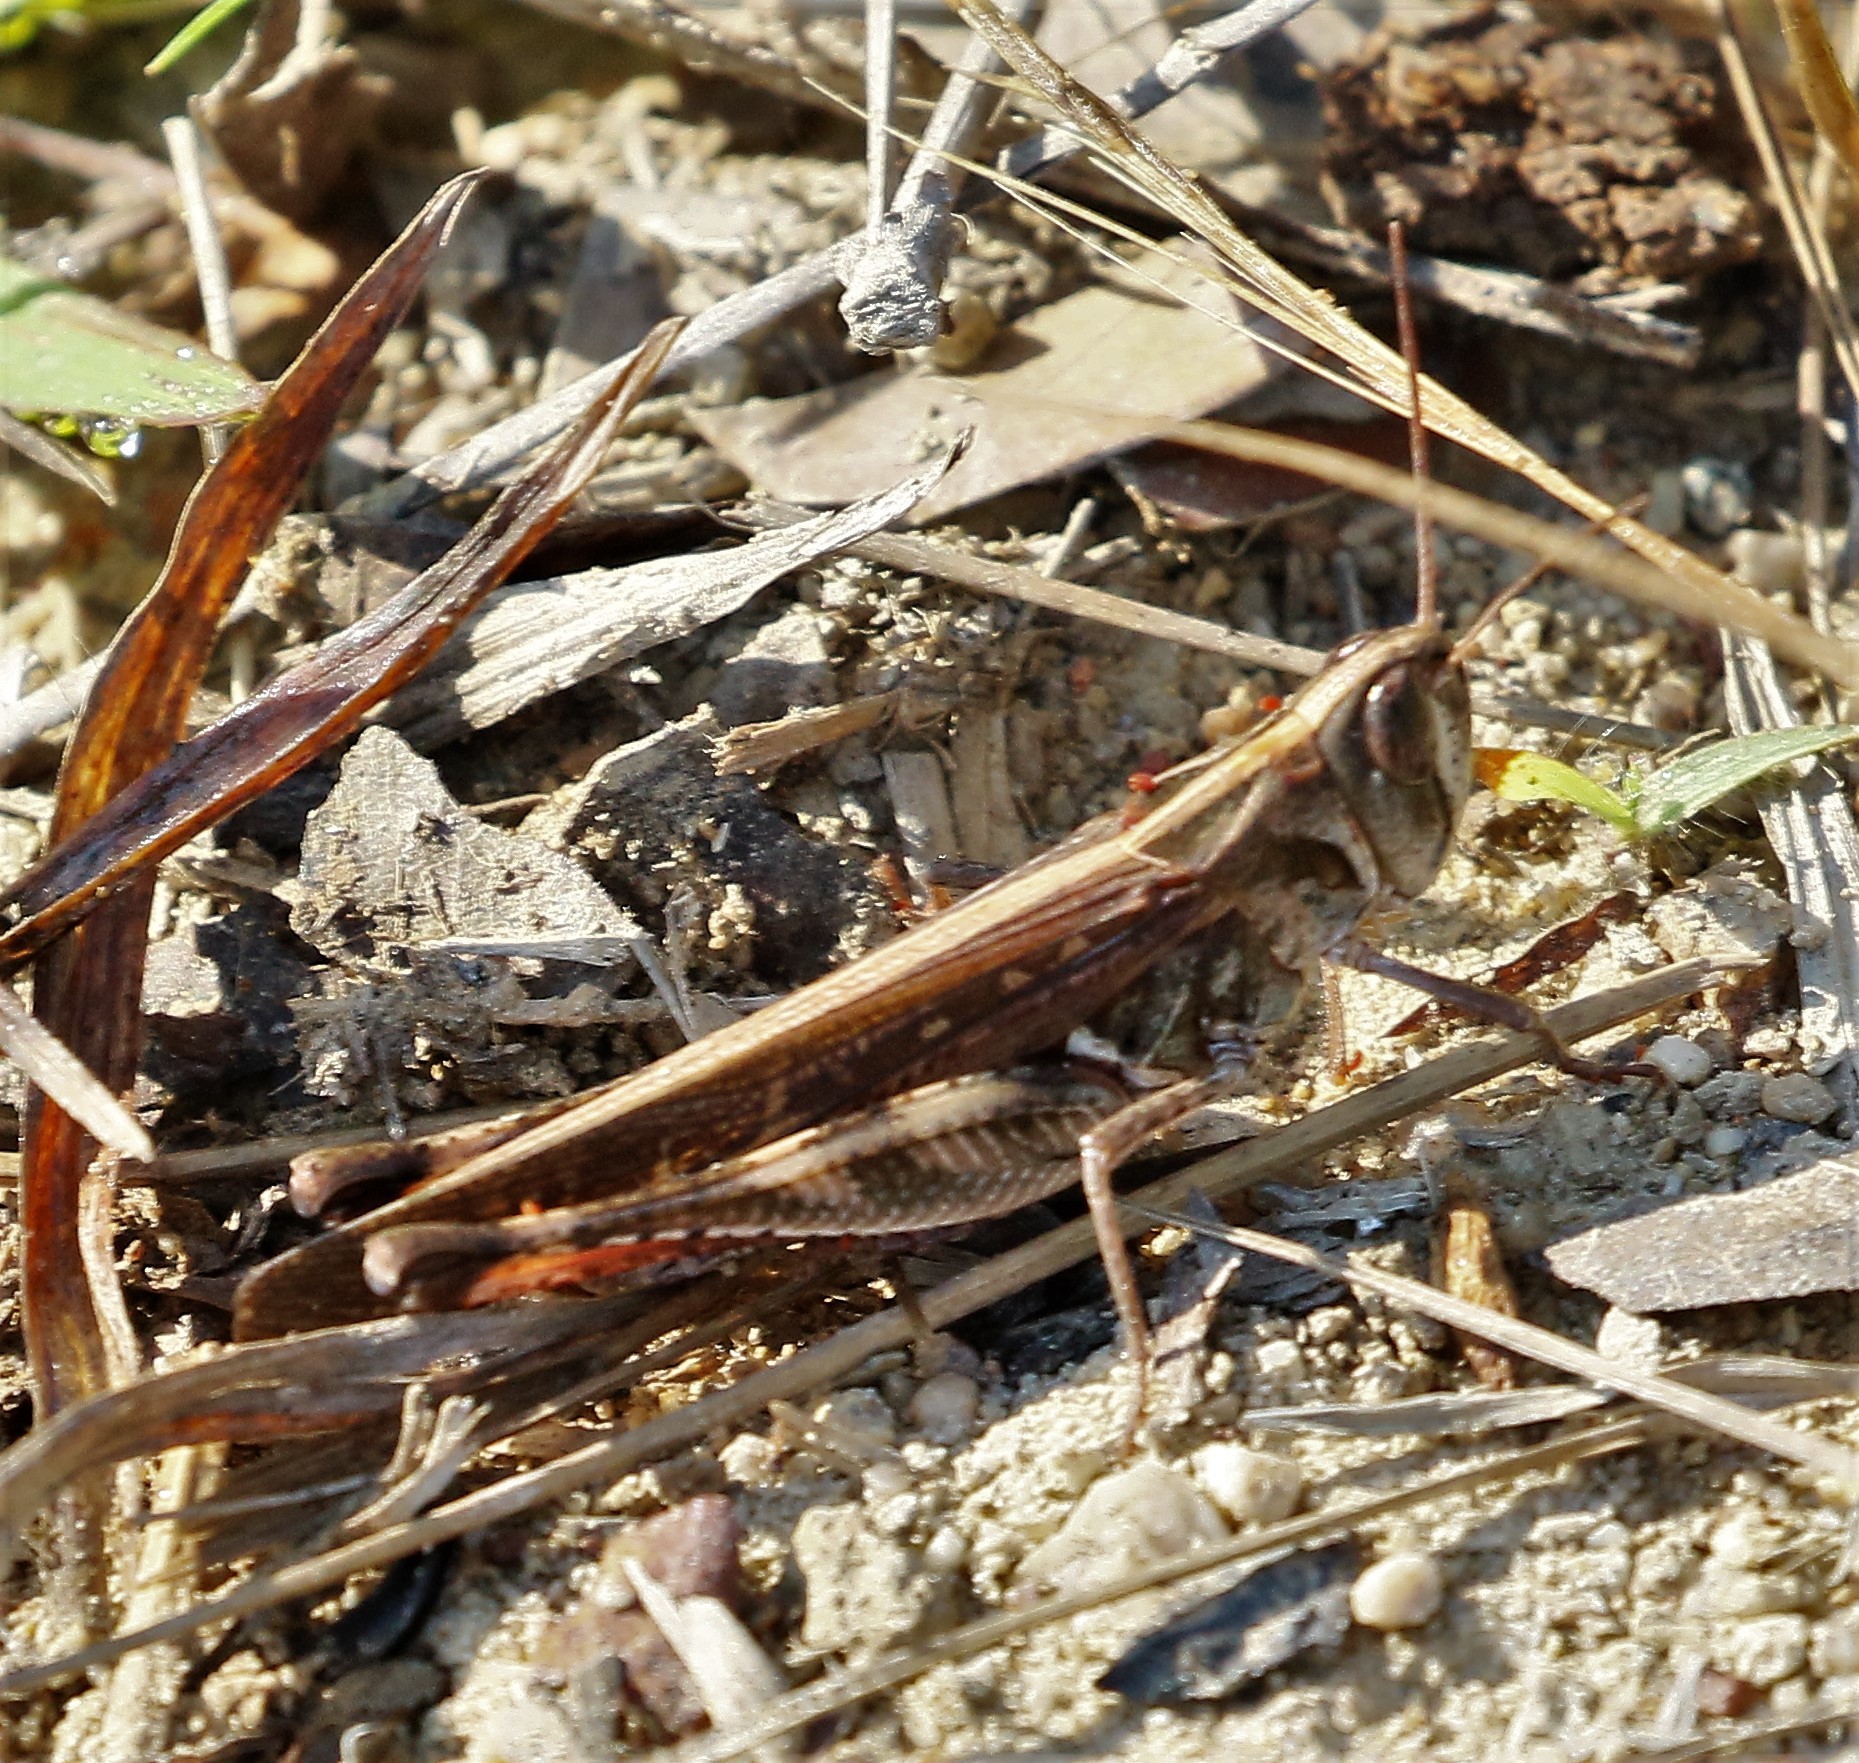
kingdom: Animalia
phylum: Arthropoda
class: Insecta
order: Orthoptera
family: Acrididae
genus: Rhammatocerus
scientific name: Rhammatocerus viatorius
